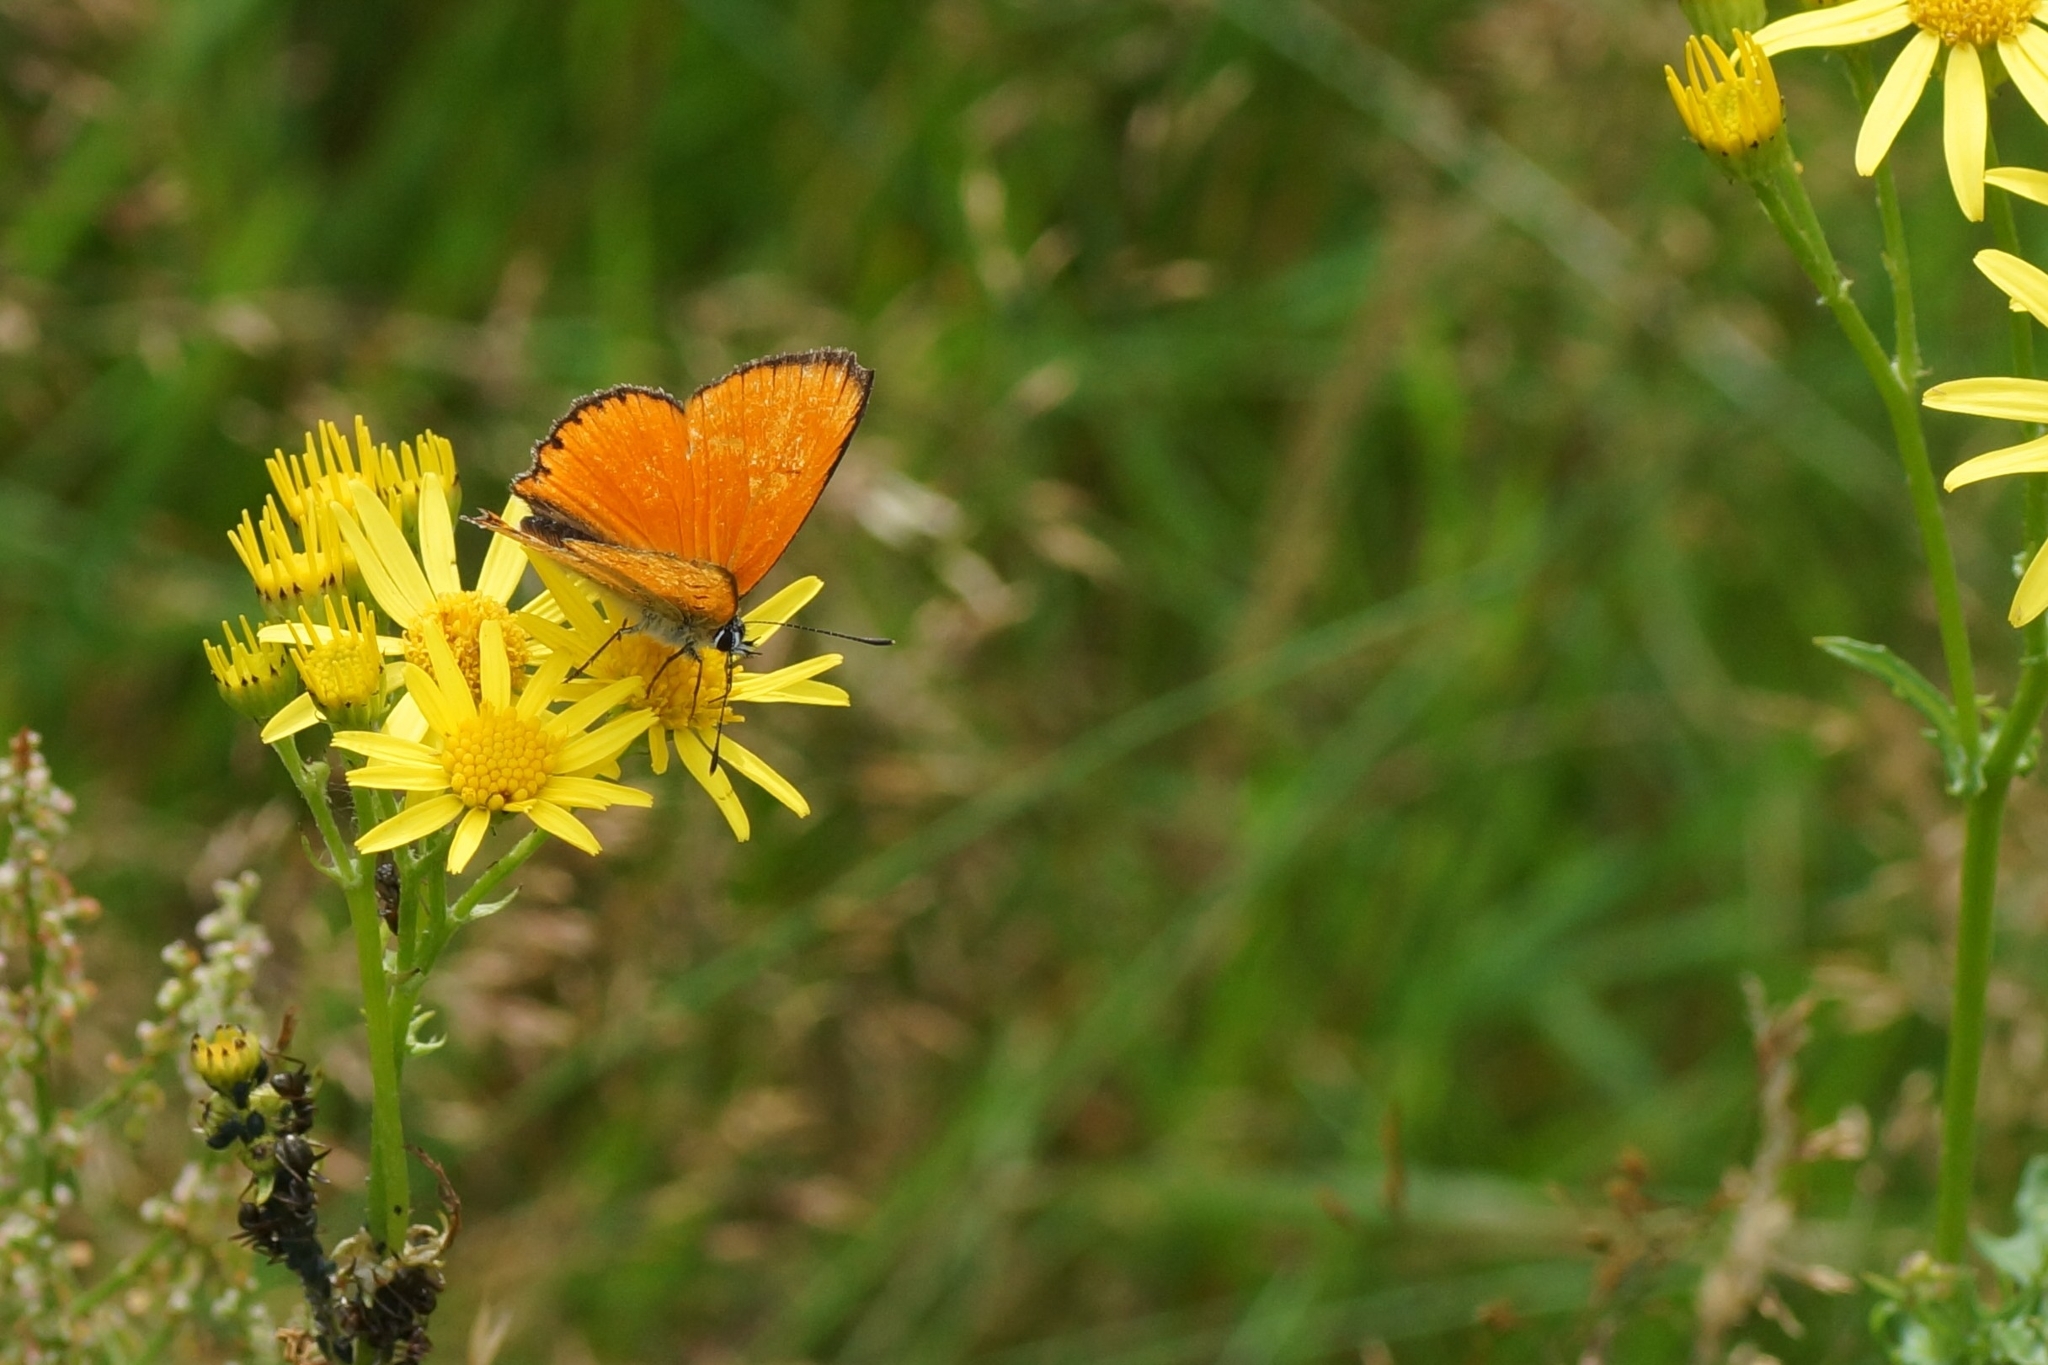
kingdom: Animalia
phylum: Arthropoda
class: Insecta
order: Lepidoptera
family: Lycaenidae
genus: Lycaena
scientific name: Lycaena virgaureae
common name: Scarce copper
